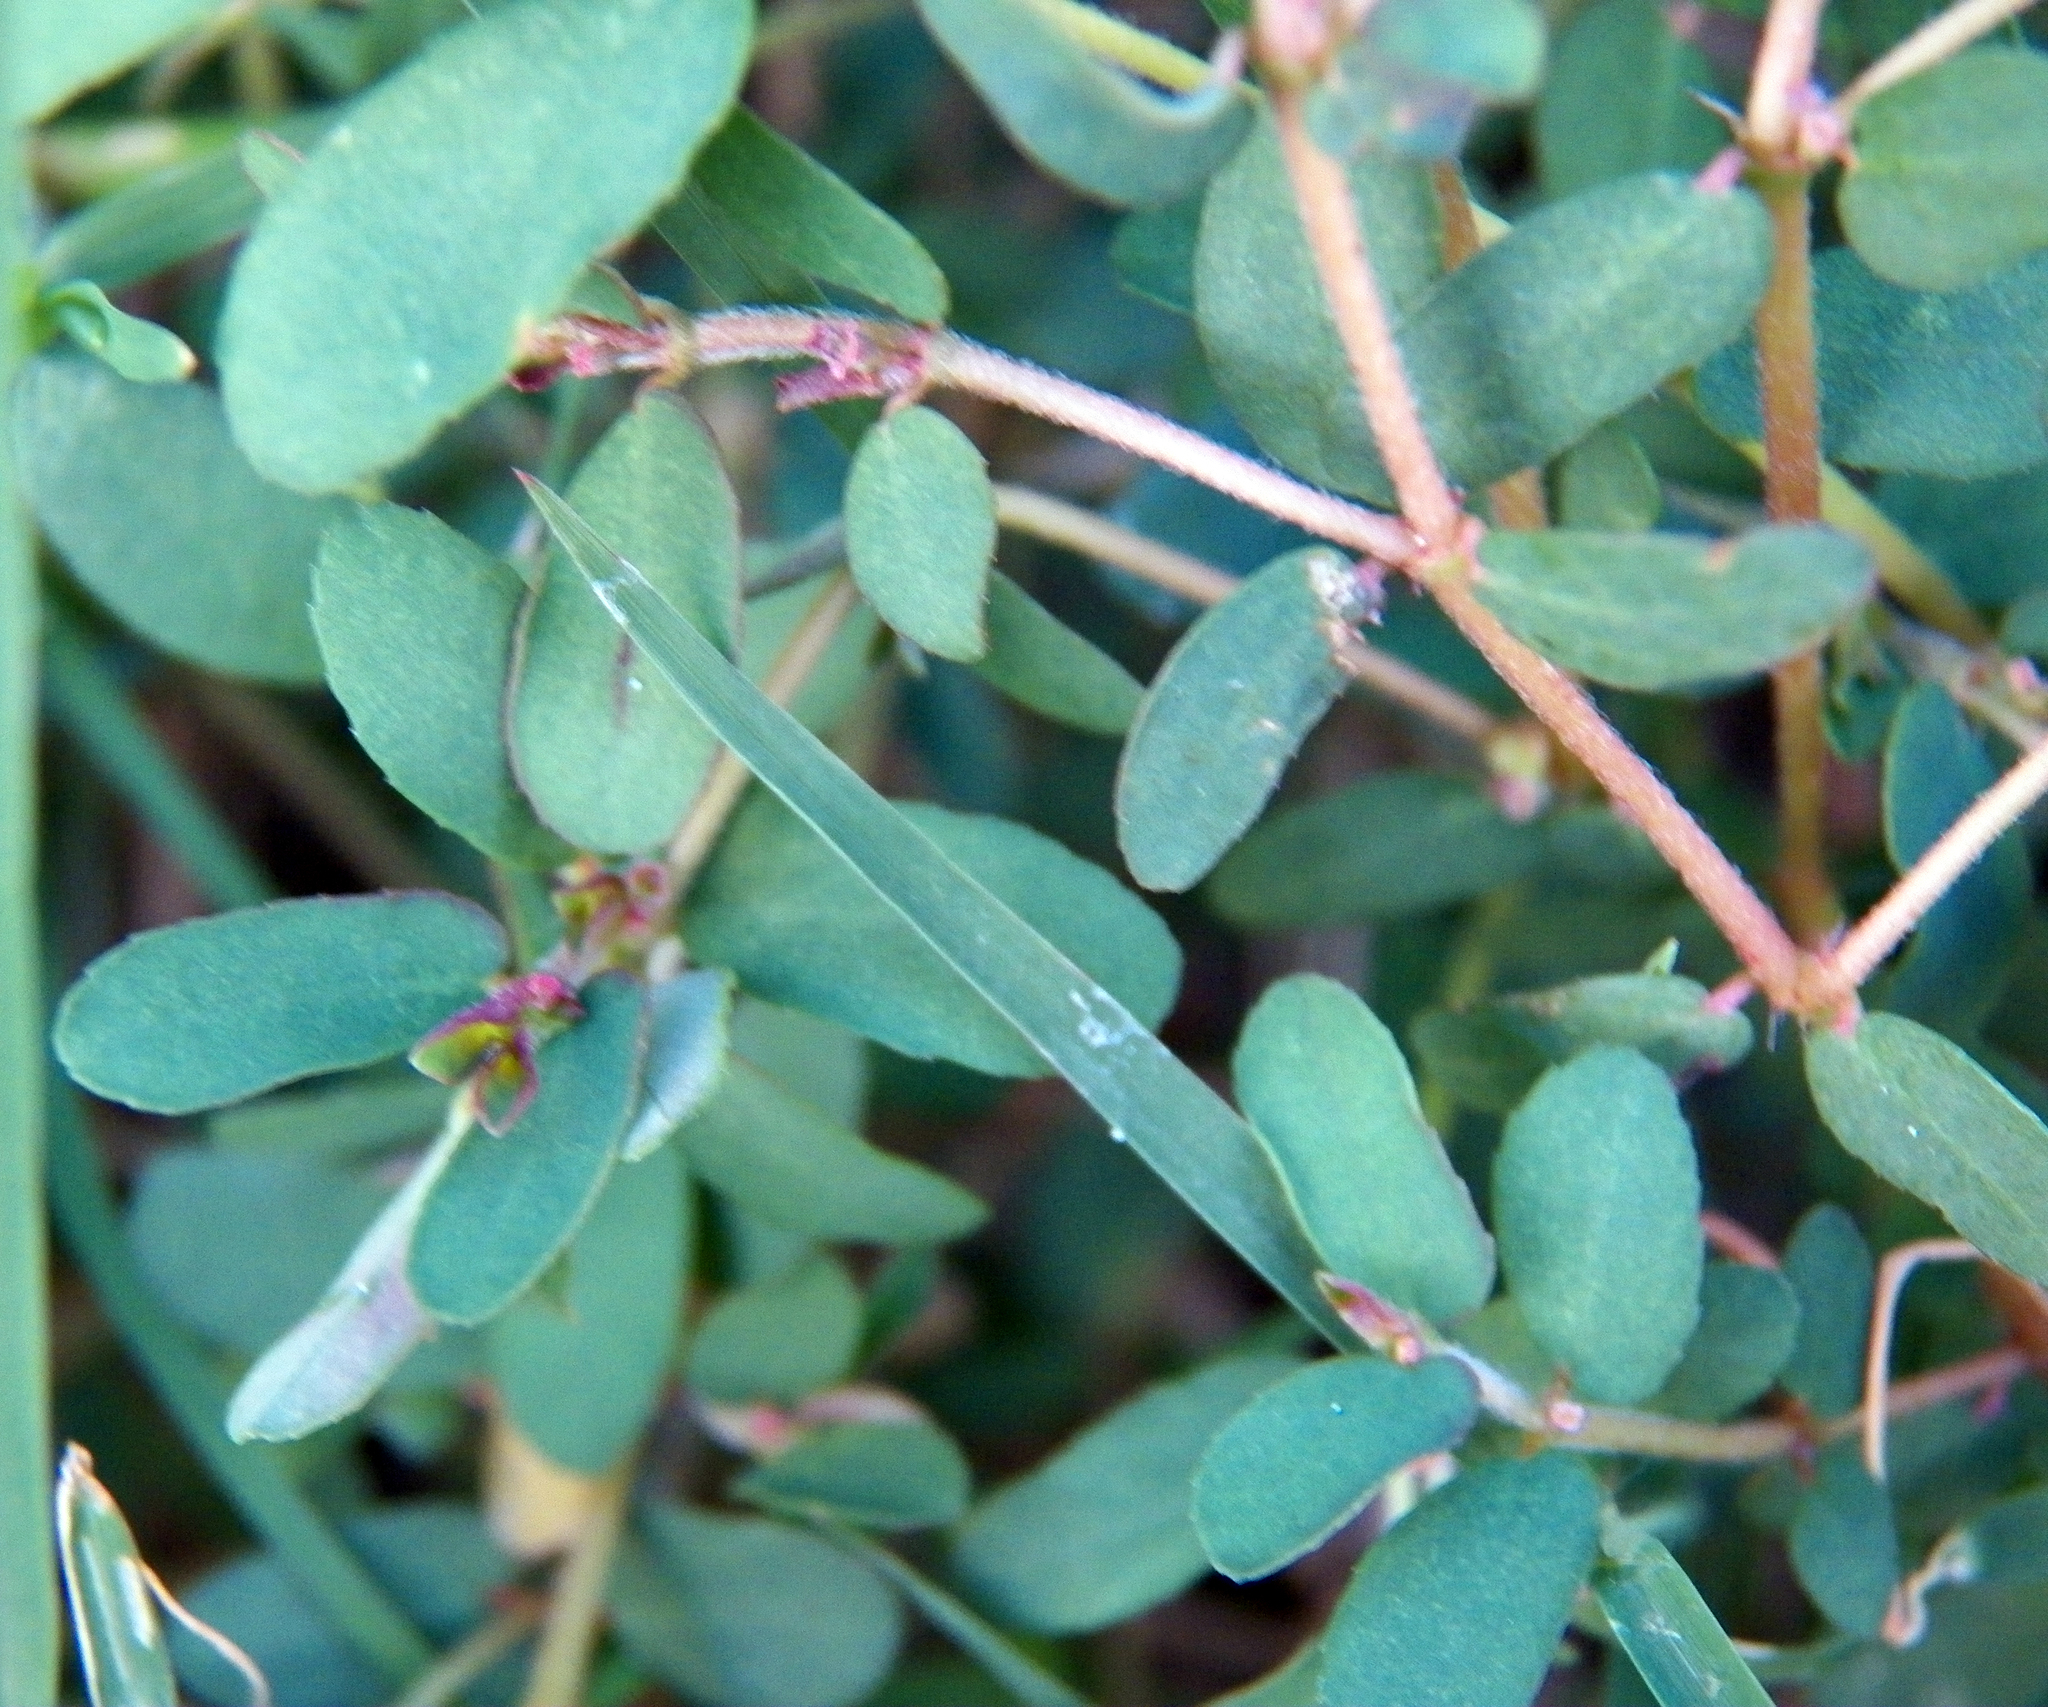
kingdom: Plantae
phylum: Tracheophyta
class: Magnoliopsida
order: Malpighiales
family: Euphorbiaceae
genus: Euphorbia
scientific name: Euphorbia maculata
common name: Spotted spurge
